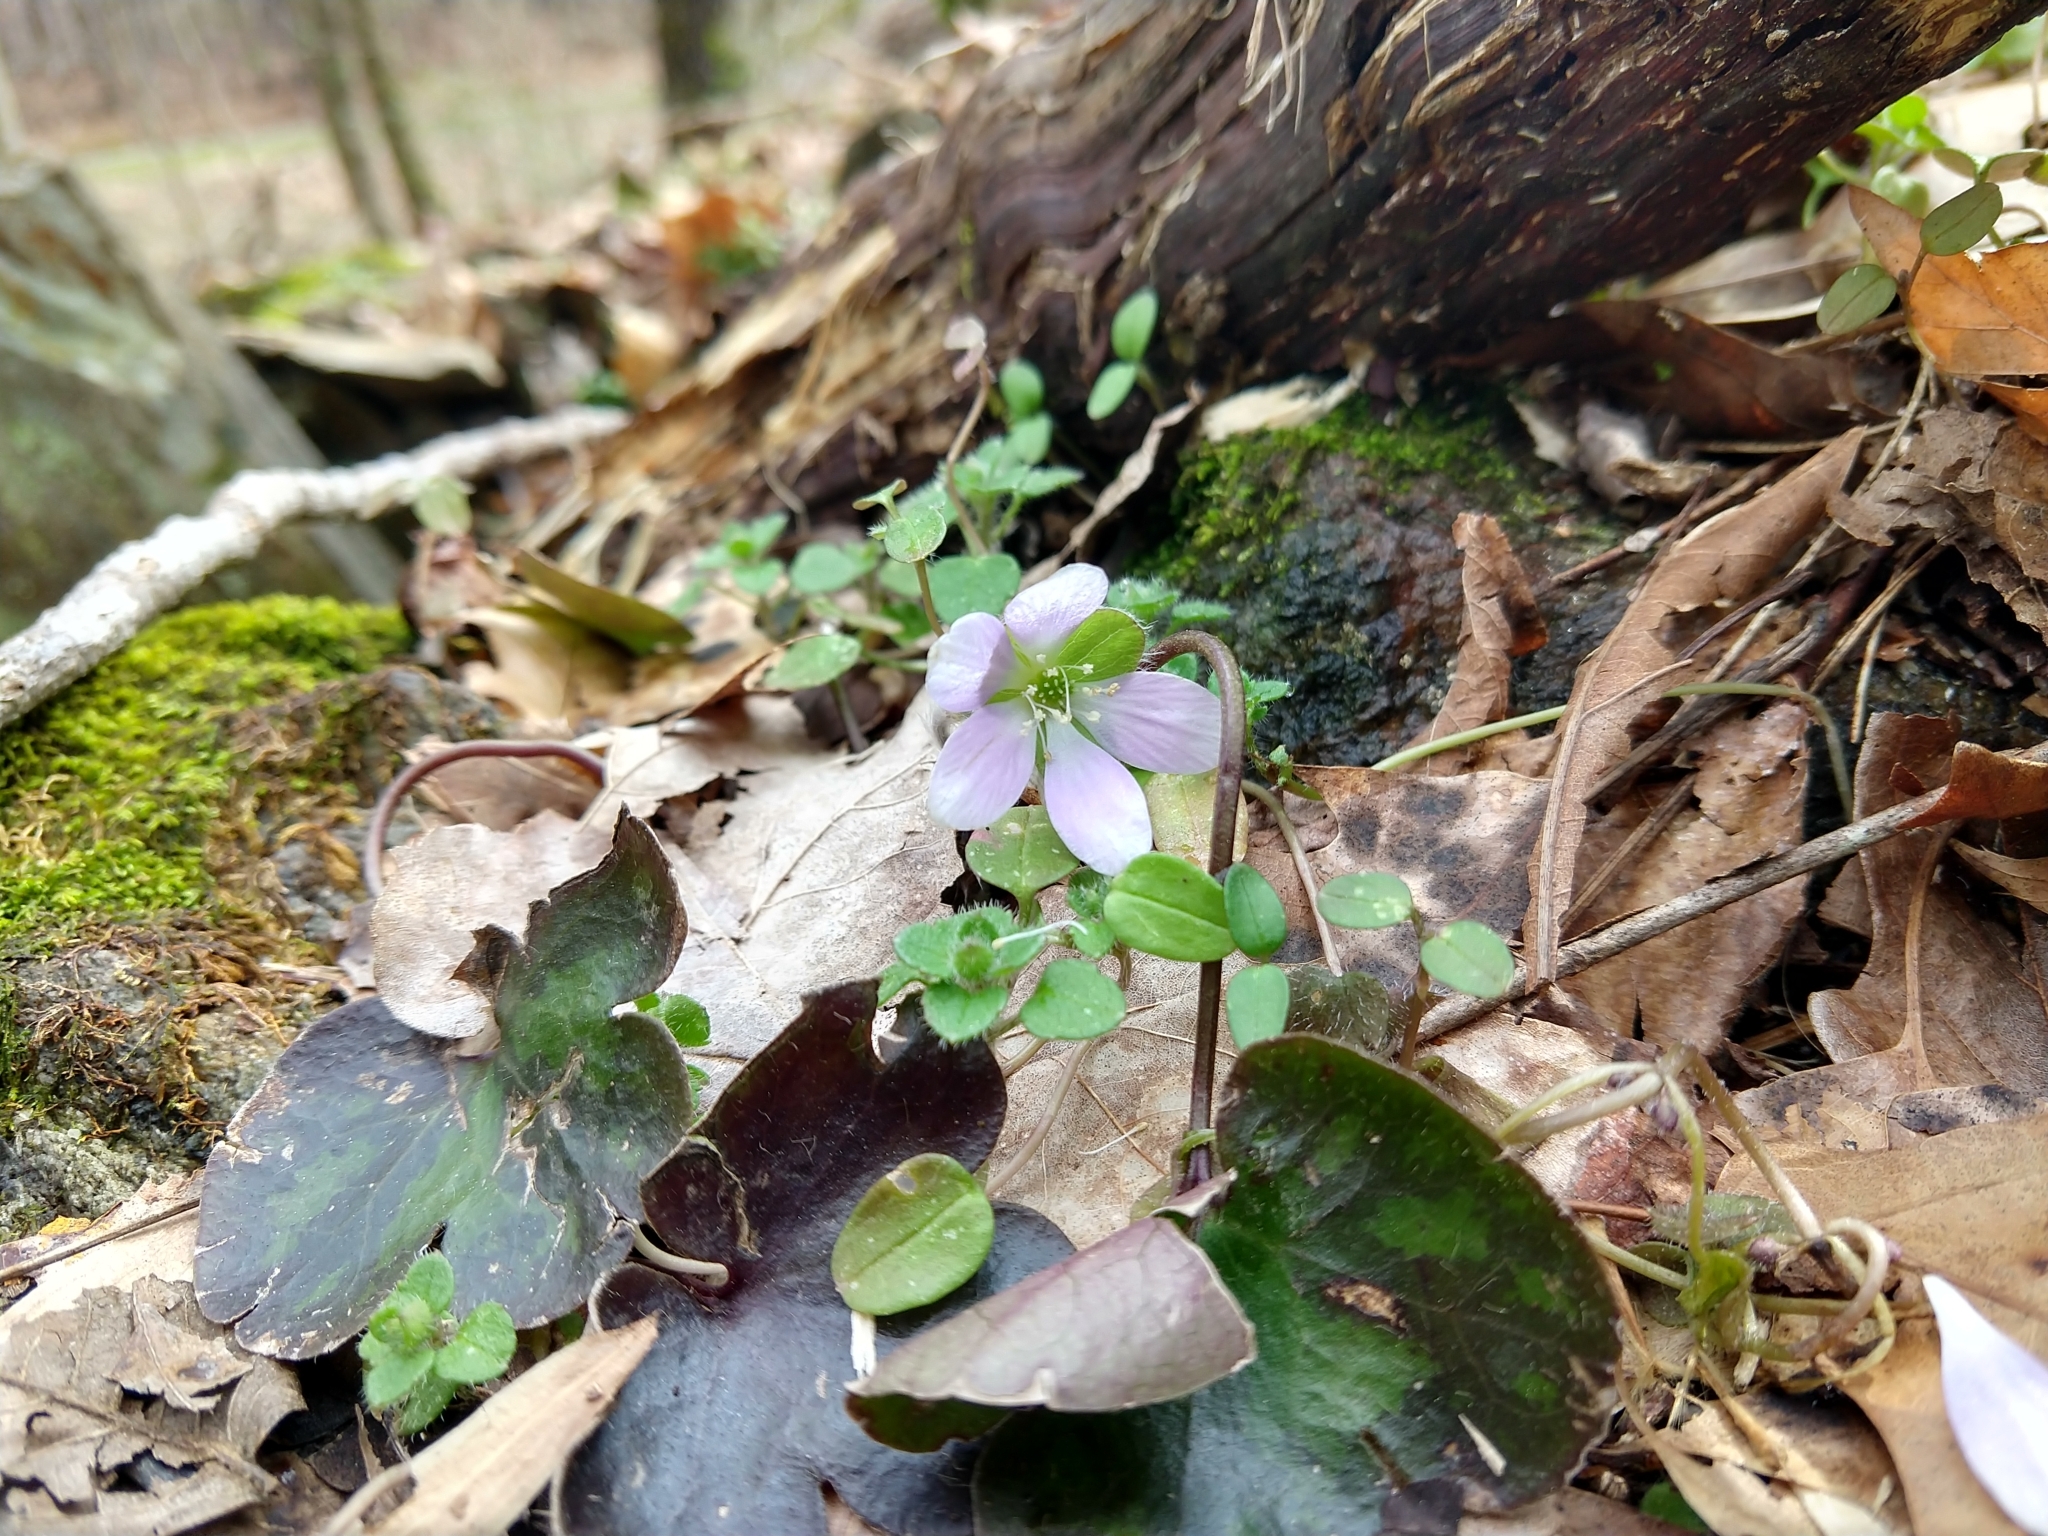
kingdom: Plantae
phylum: Tracheophyta
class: Magnoliopsida
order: Ranunculales
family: Ranunculaceae
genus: Hepatica
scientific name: Hepatica americana
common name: American hepatica
